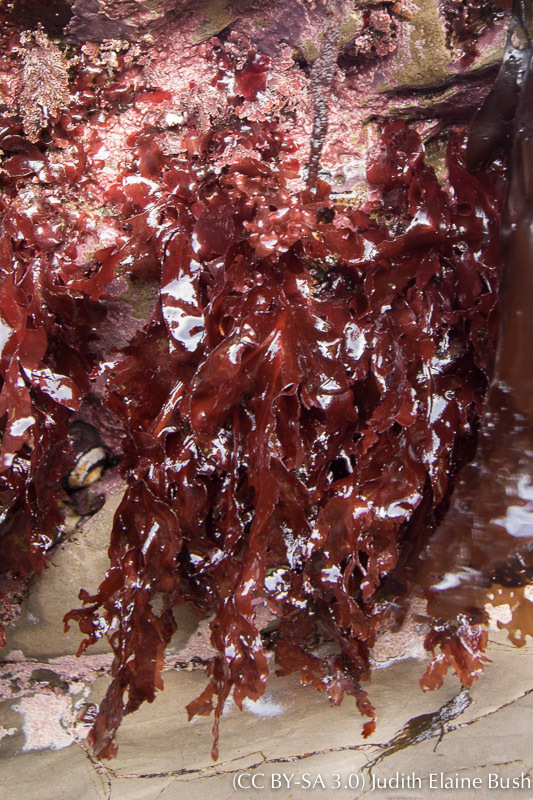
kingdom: Plantae
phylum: Rhodophyta
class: Florideophyceae
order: Gigartinales
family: Kallymeniaceae
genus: Erythrophyllum
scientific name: Erythrophyllum delesserioides
